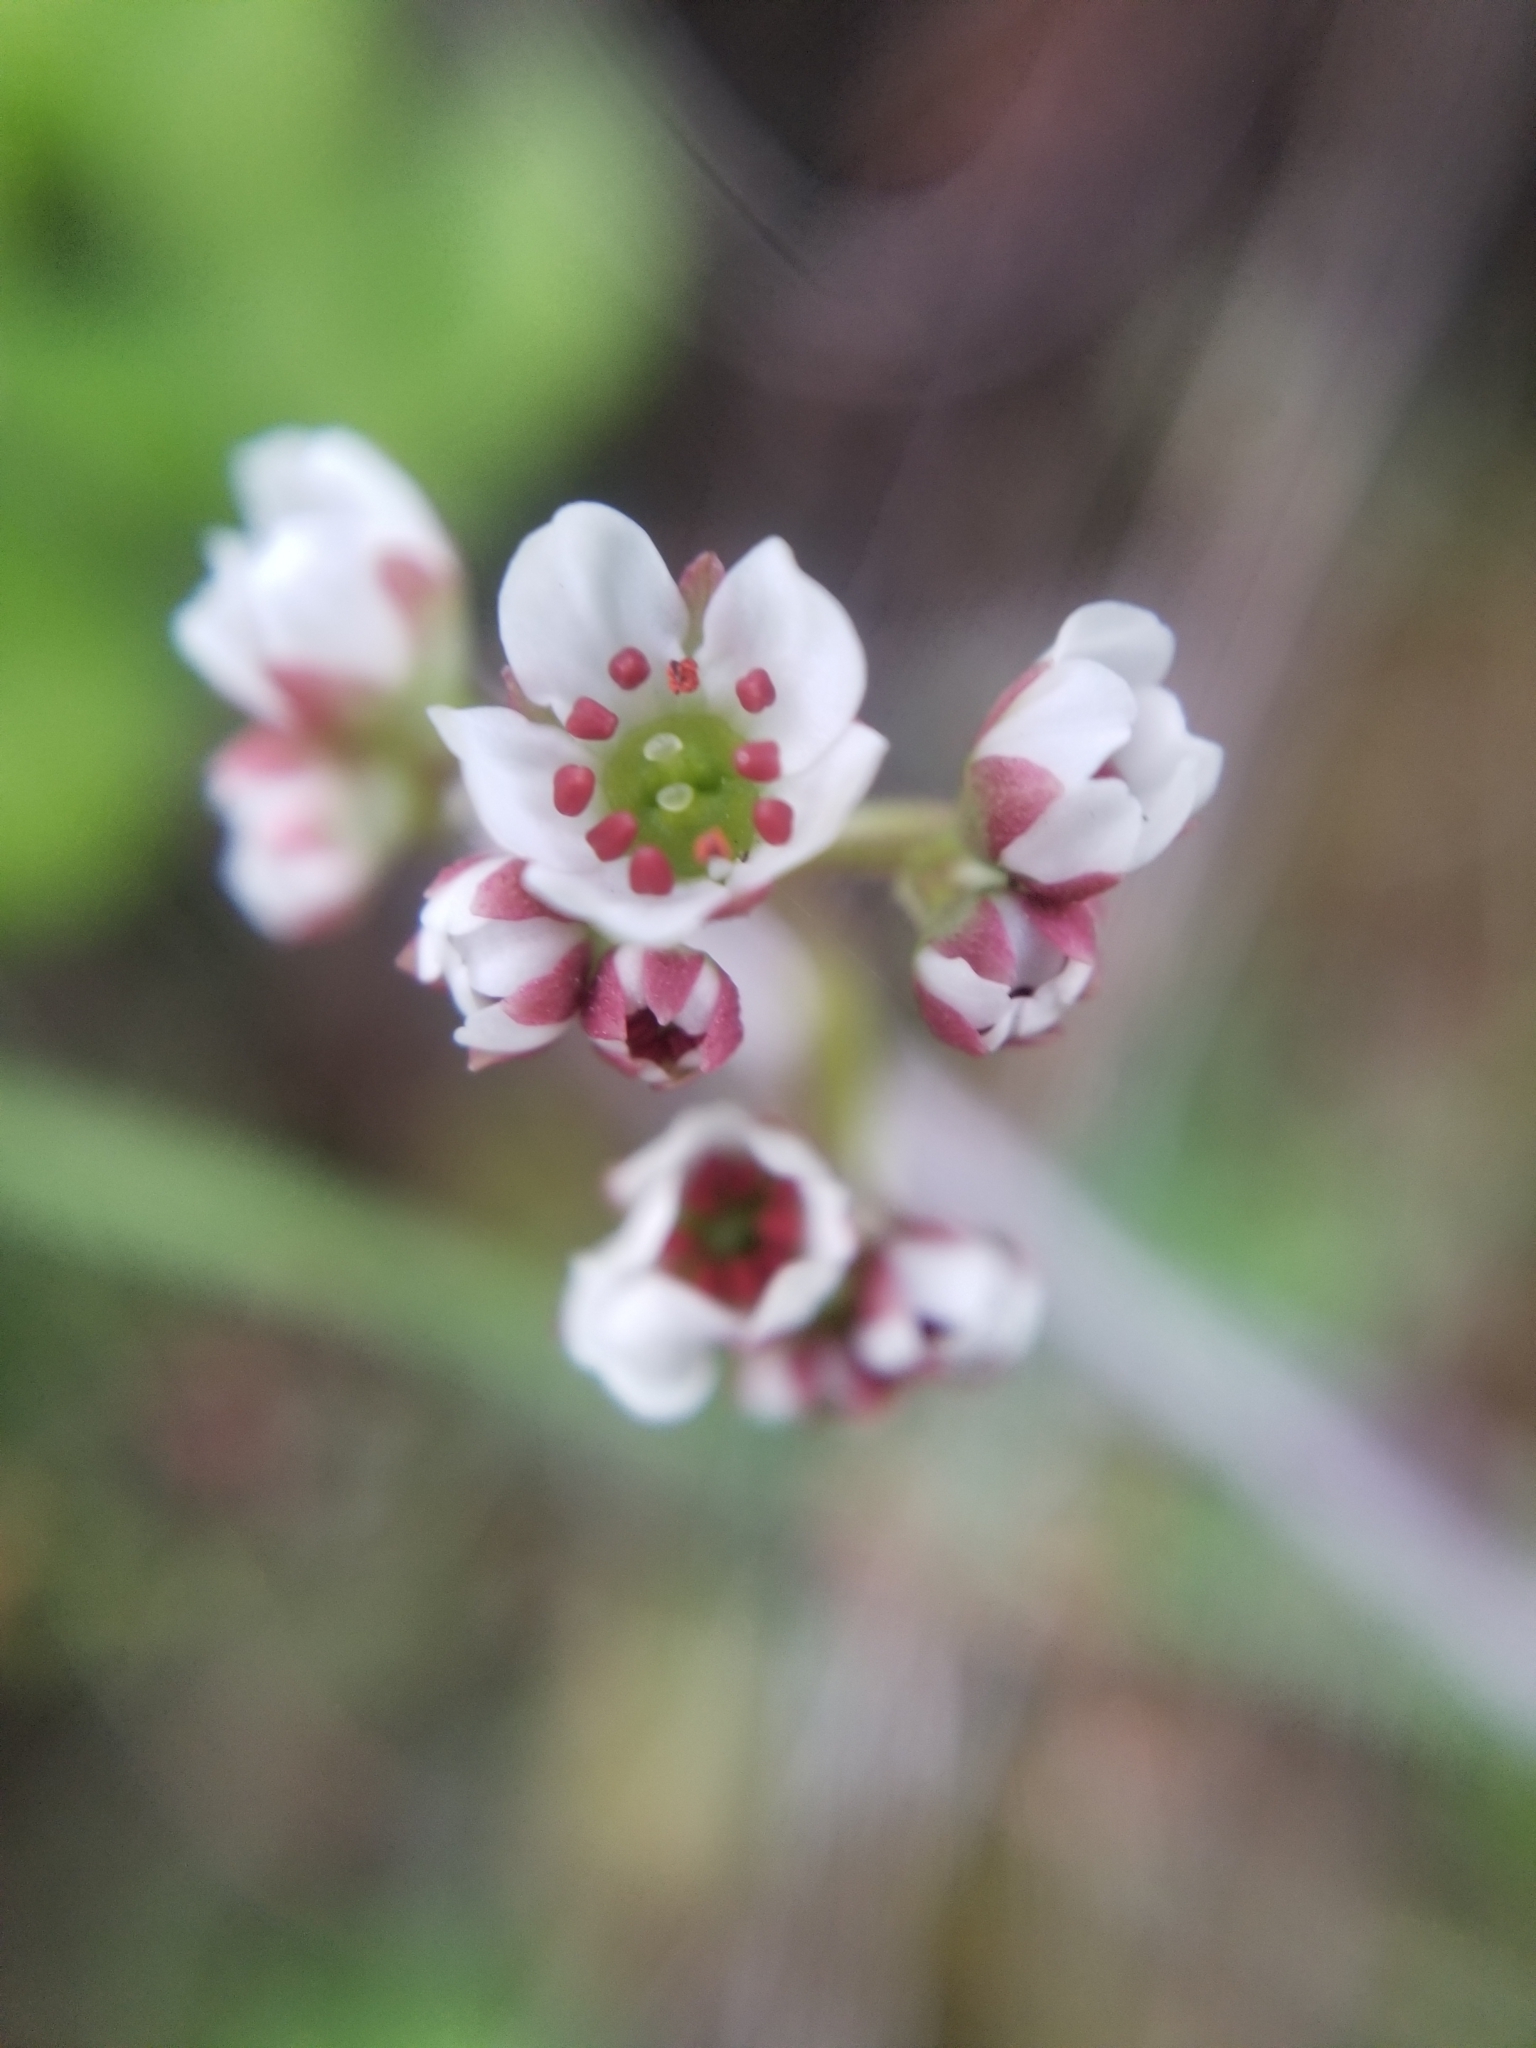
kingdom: Plantae
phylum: Tracheophyta
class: Magnoliopsida
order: Saxifragales
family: Saxifragaceae
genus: Micranthes
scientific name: Micranthes californica
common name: California saxifrage
